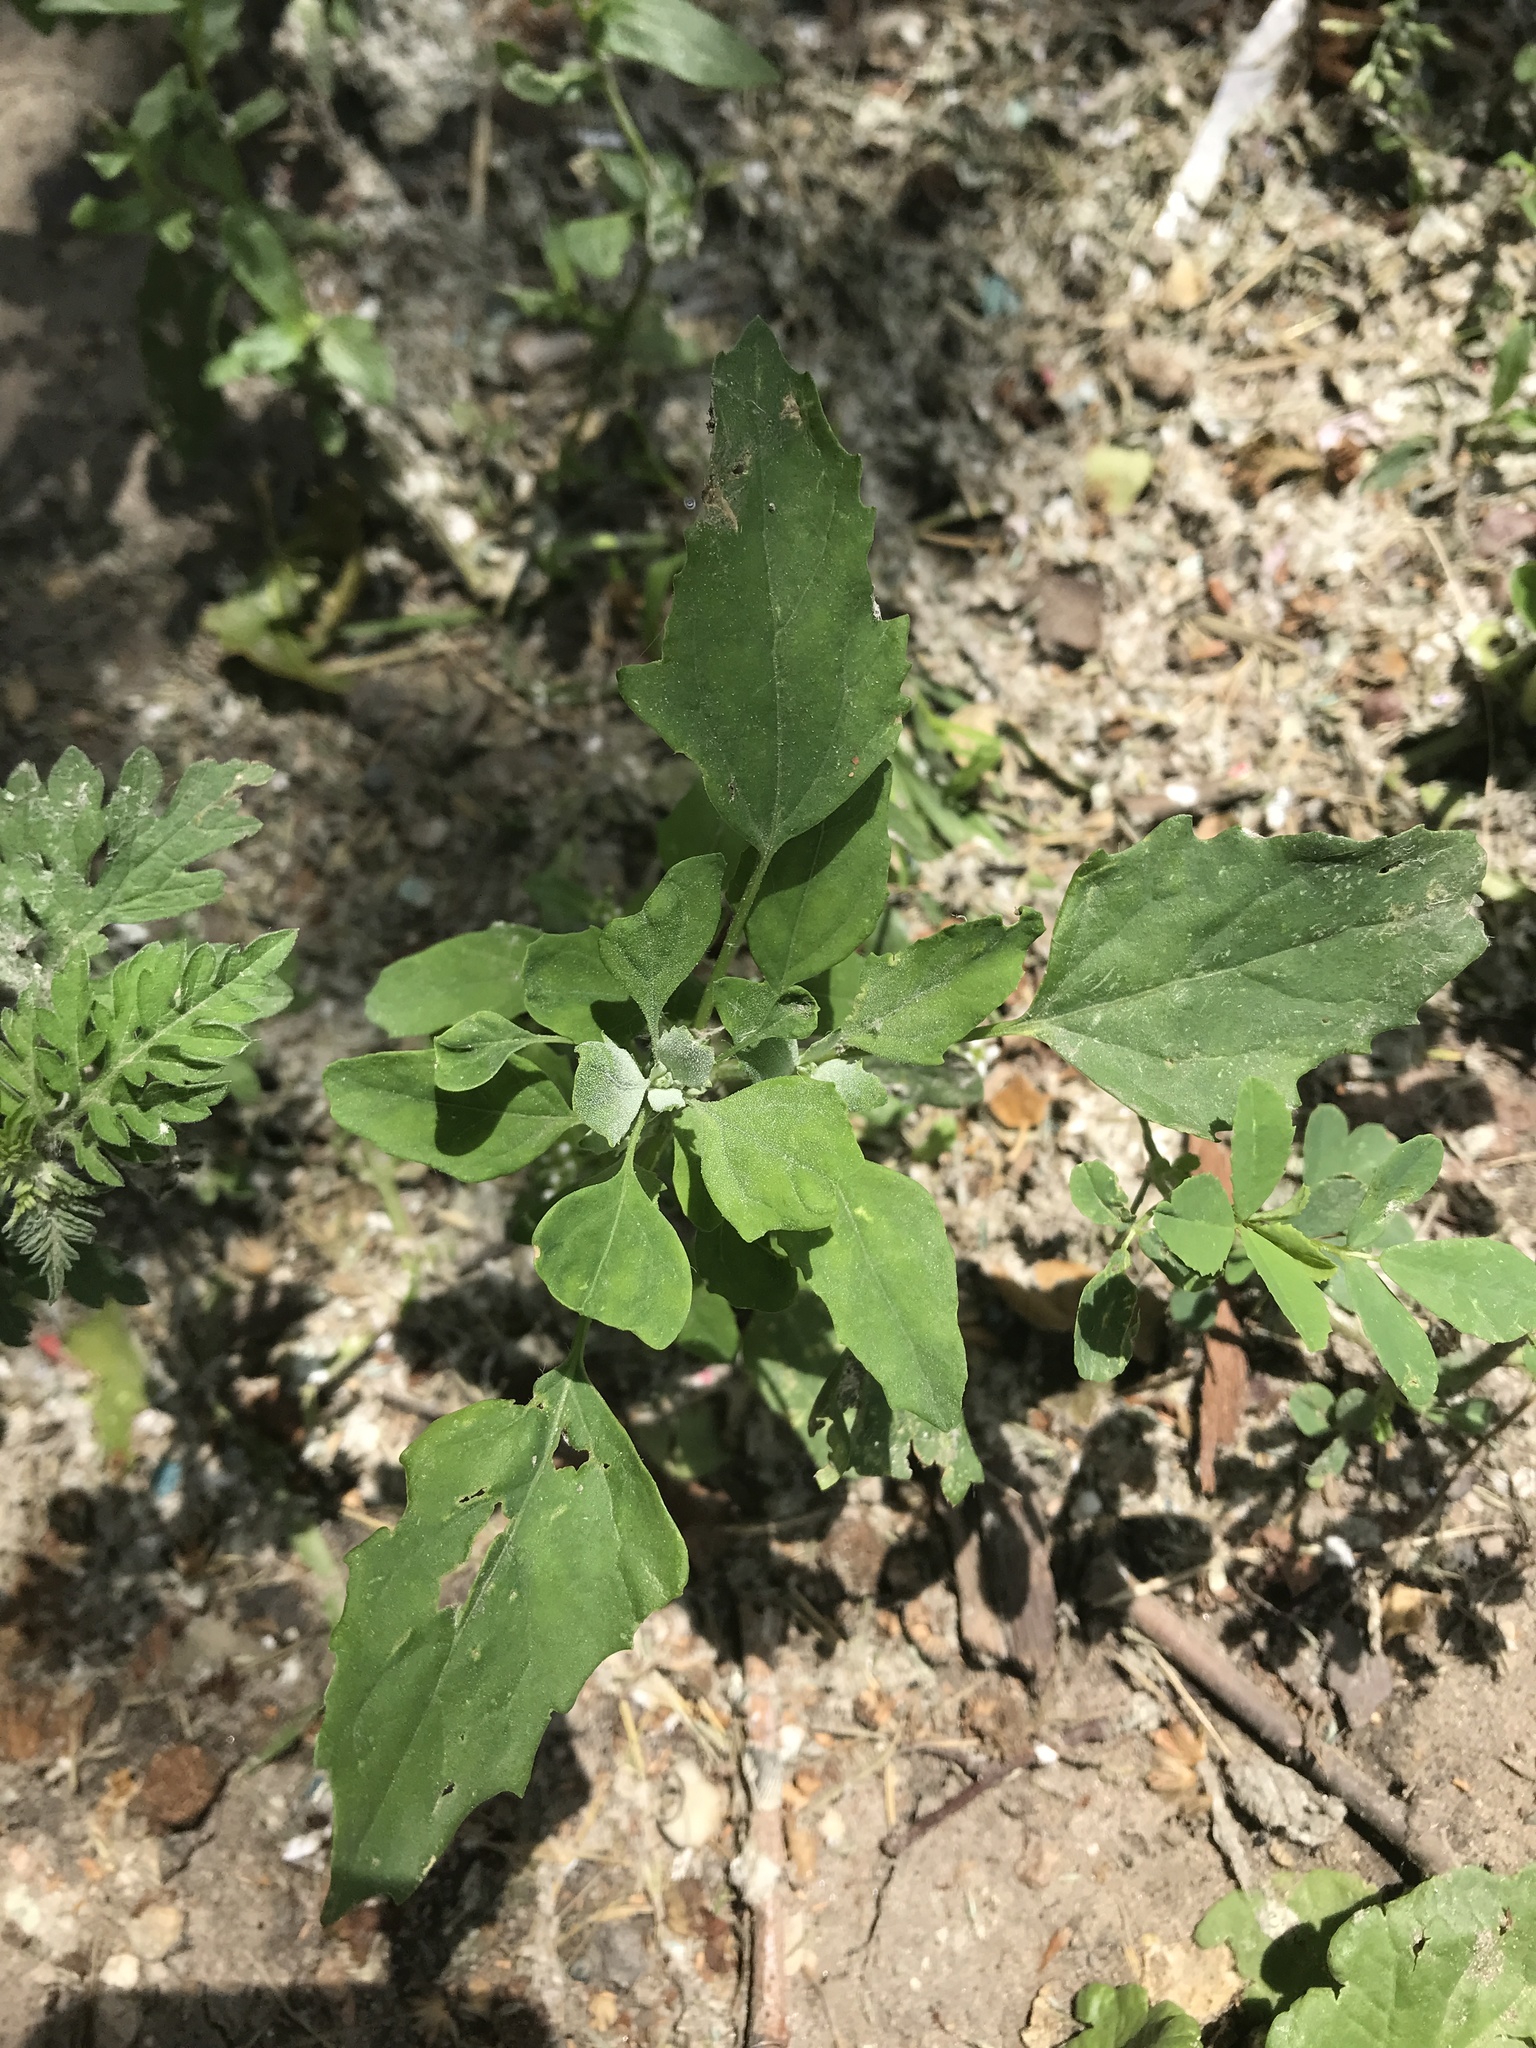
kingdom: Plantae
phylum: Tracheophyta
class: Magnoliopsida
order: Caryophyllales
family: Amaranthaceae
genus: Chenopodium
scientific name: Chenopodium album
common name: Fat-hen
